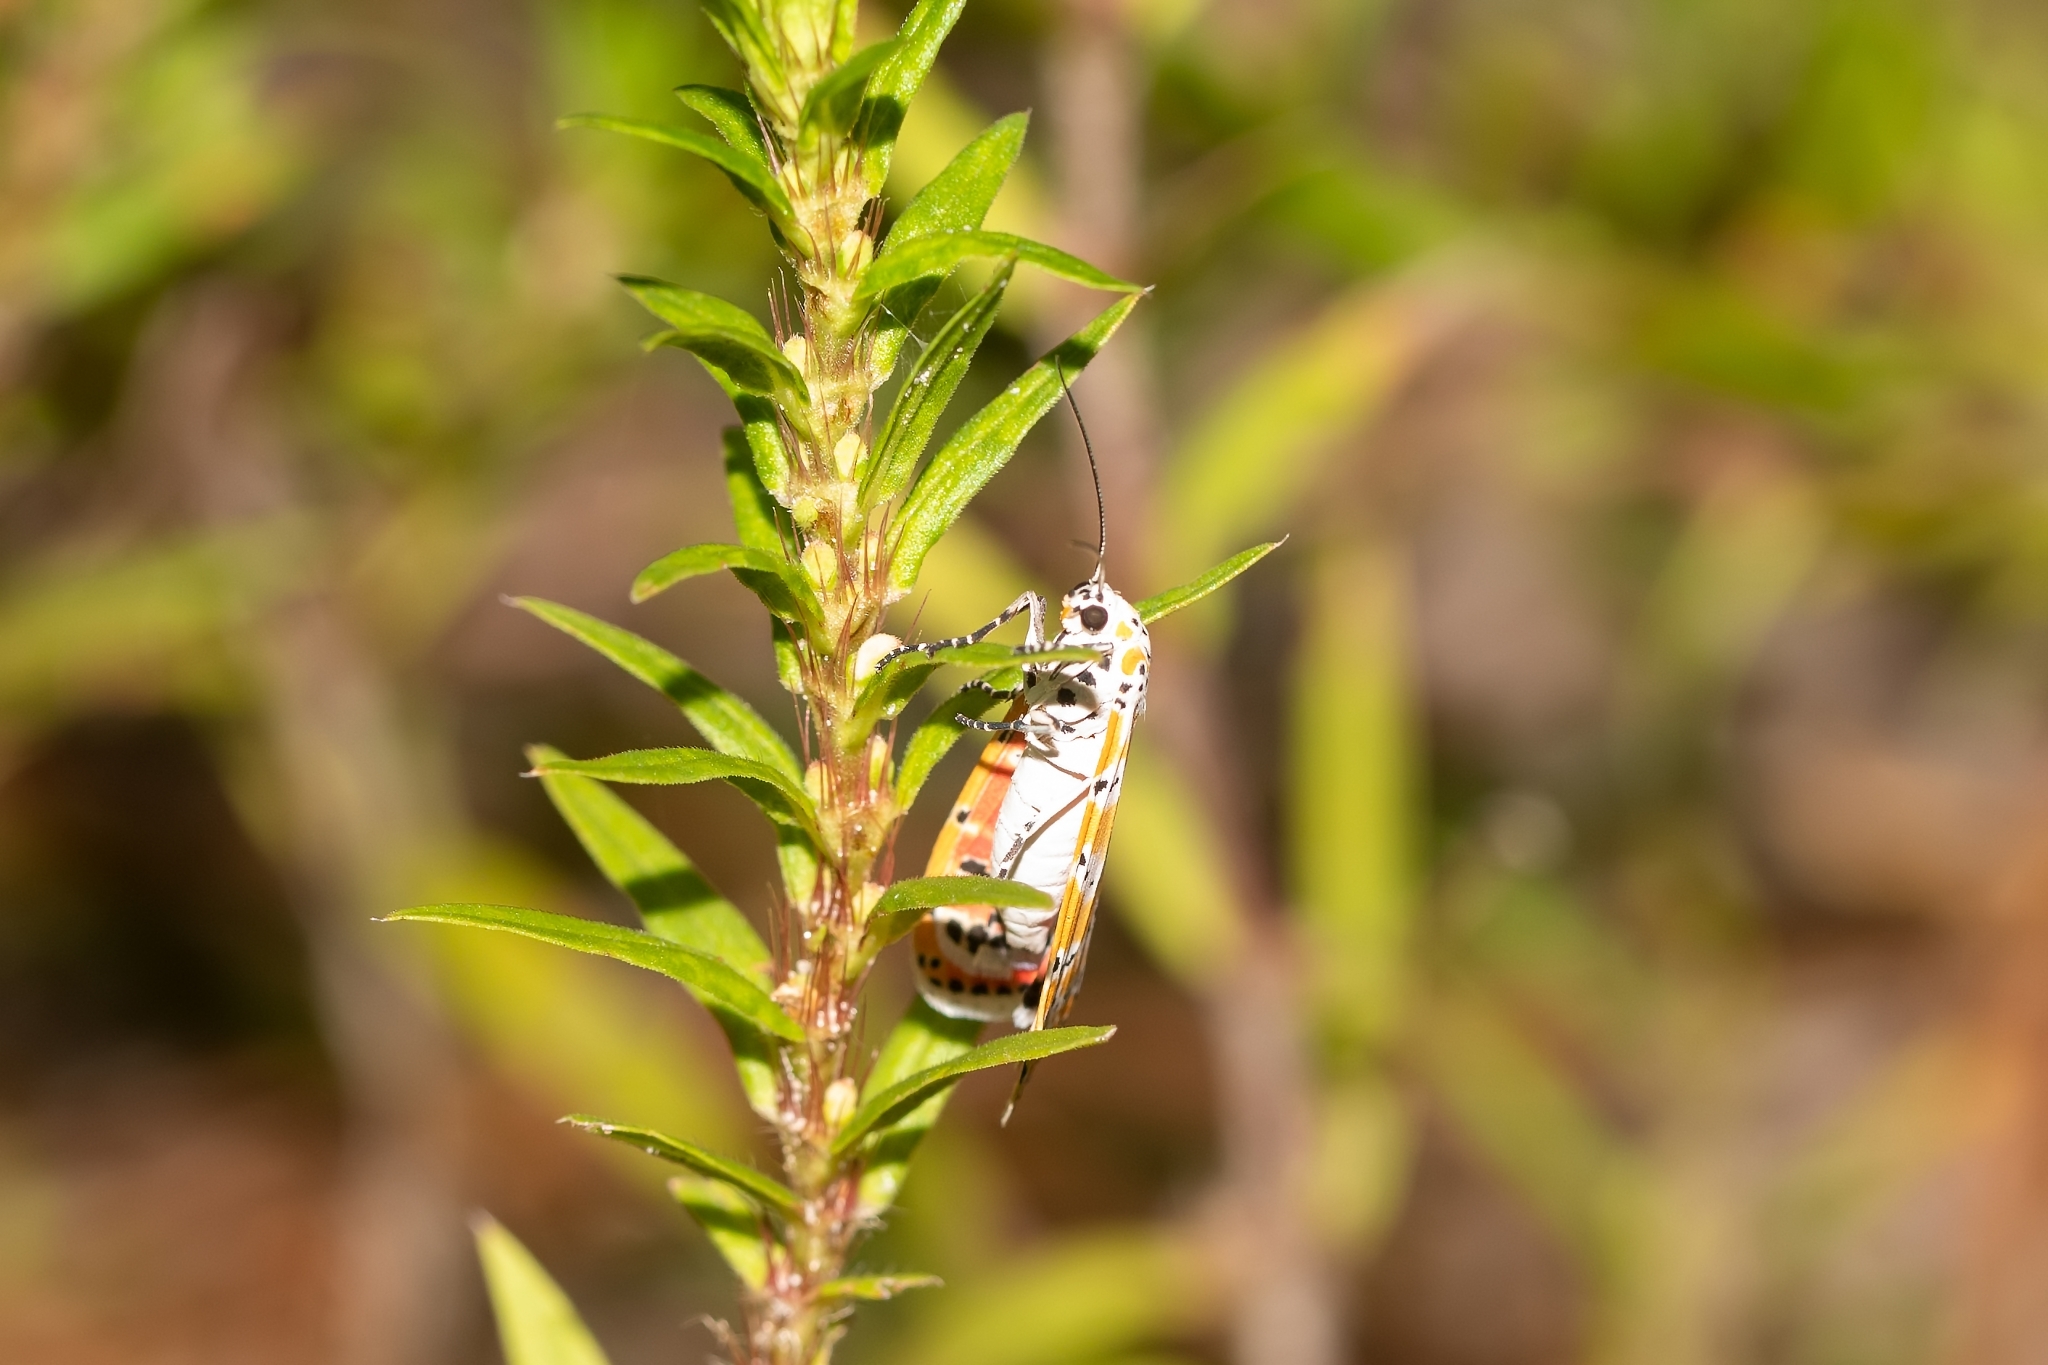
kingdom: Animalia
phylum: Arthropoda
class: Insecta
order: Lepidoptera
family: Erebidae
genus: Utetheisa
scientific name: Utetheisa ornatrix
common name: Beautiful utetheisa
